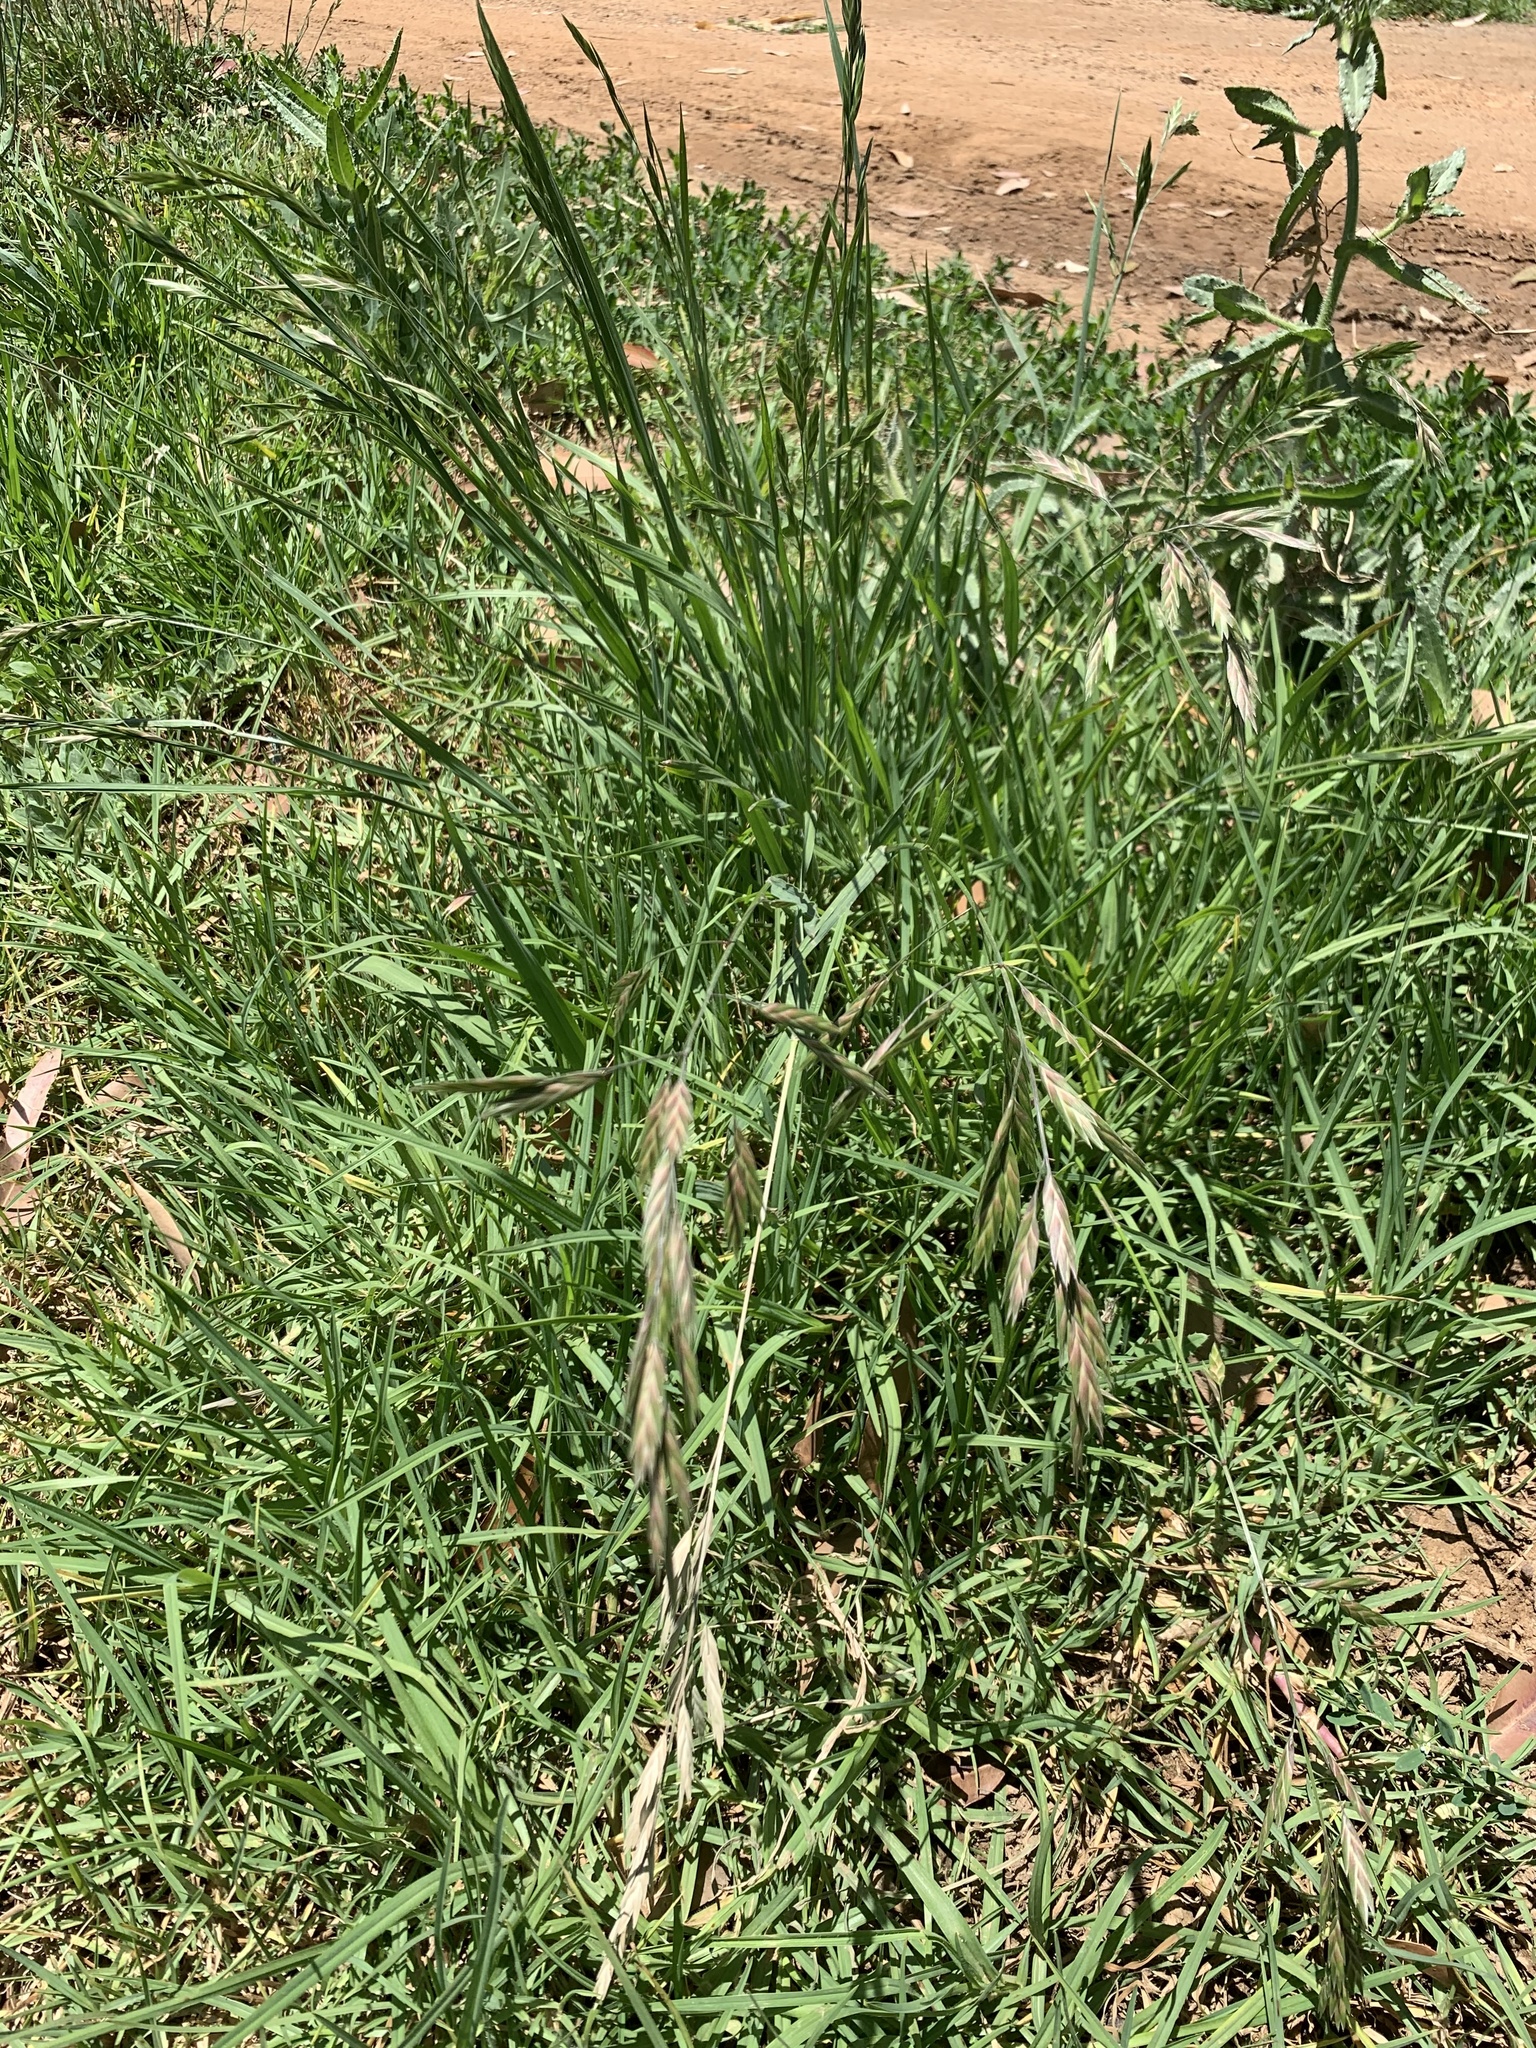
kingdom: Plantae
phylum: Tracheophyta
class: Liliopsida
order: Poales
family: Poaceae
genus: Bromus
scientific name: Bromus catharticus
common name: Rescuegrass
